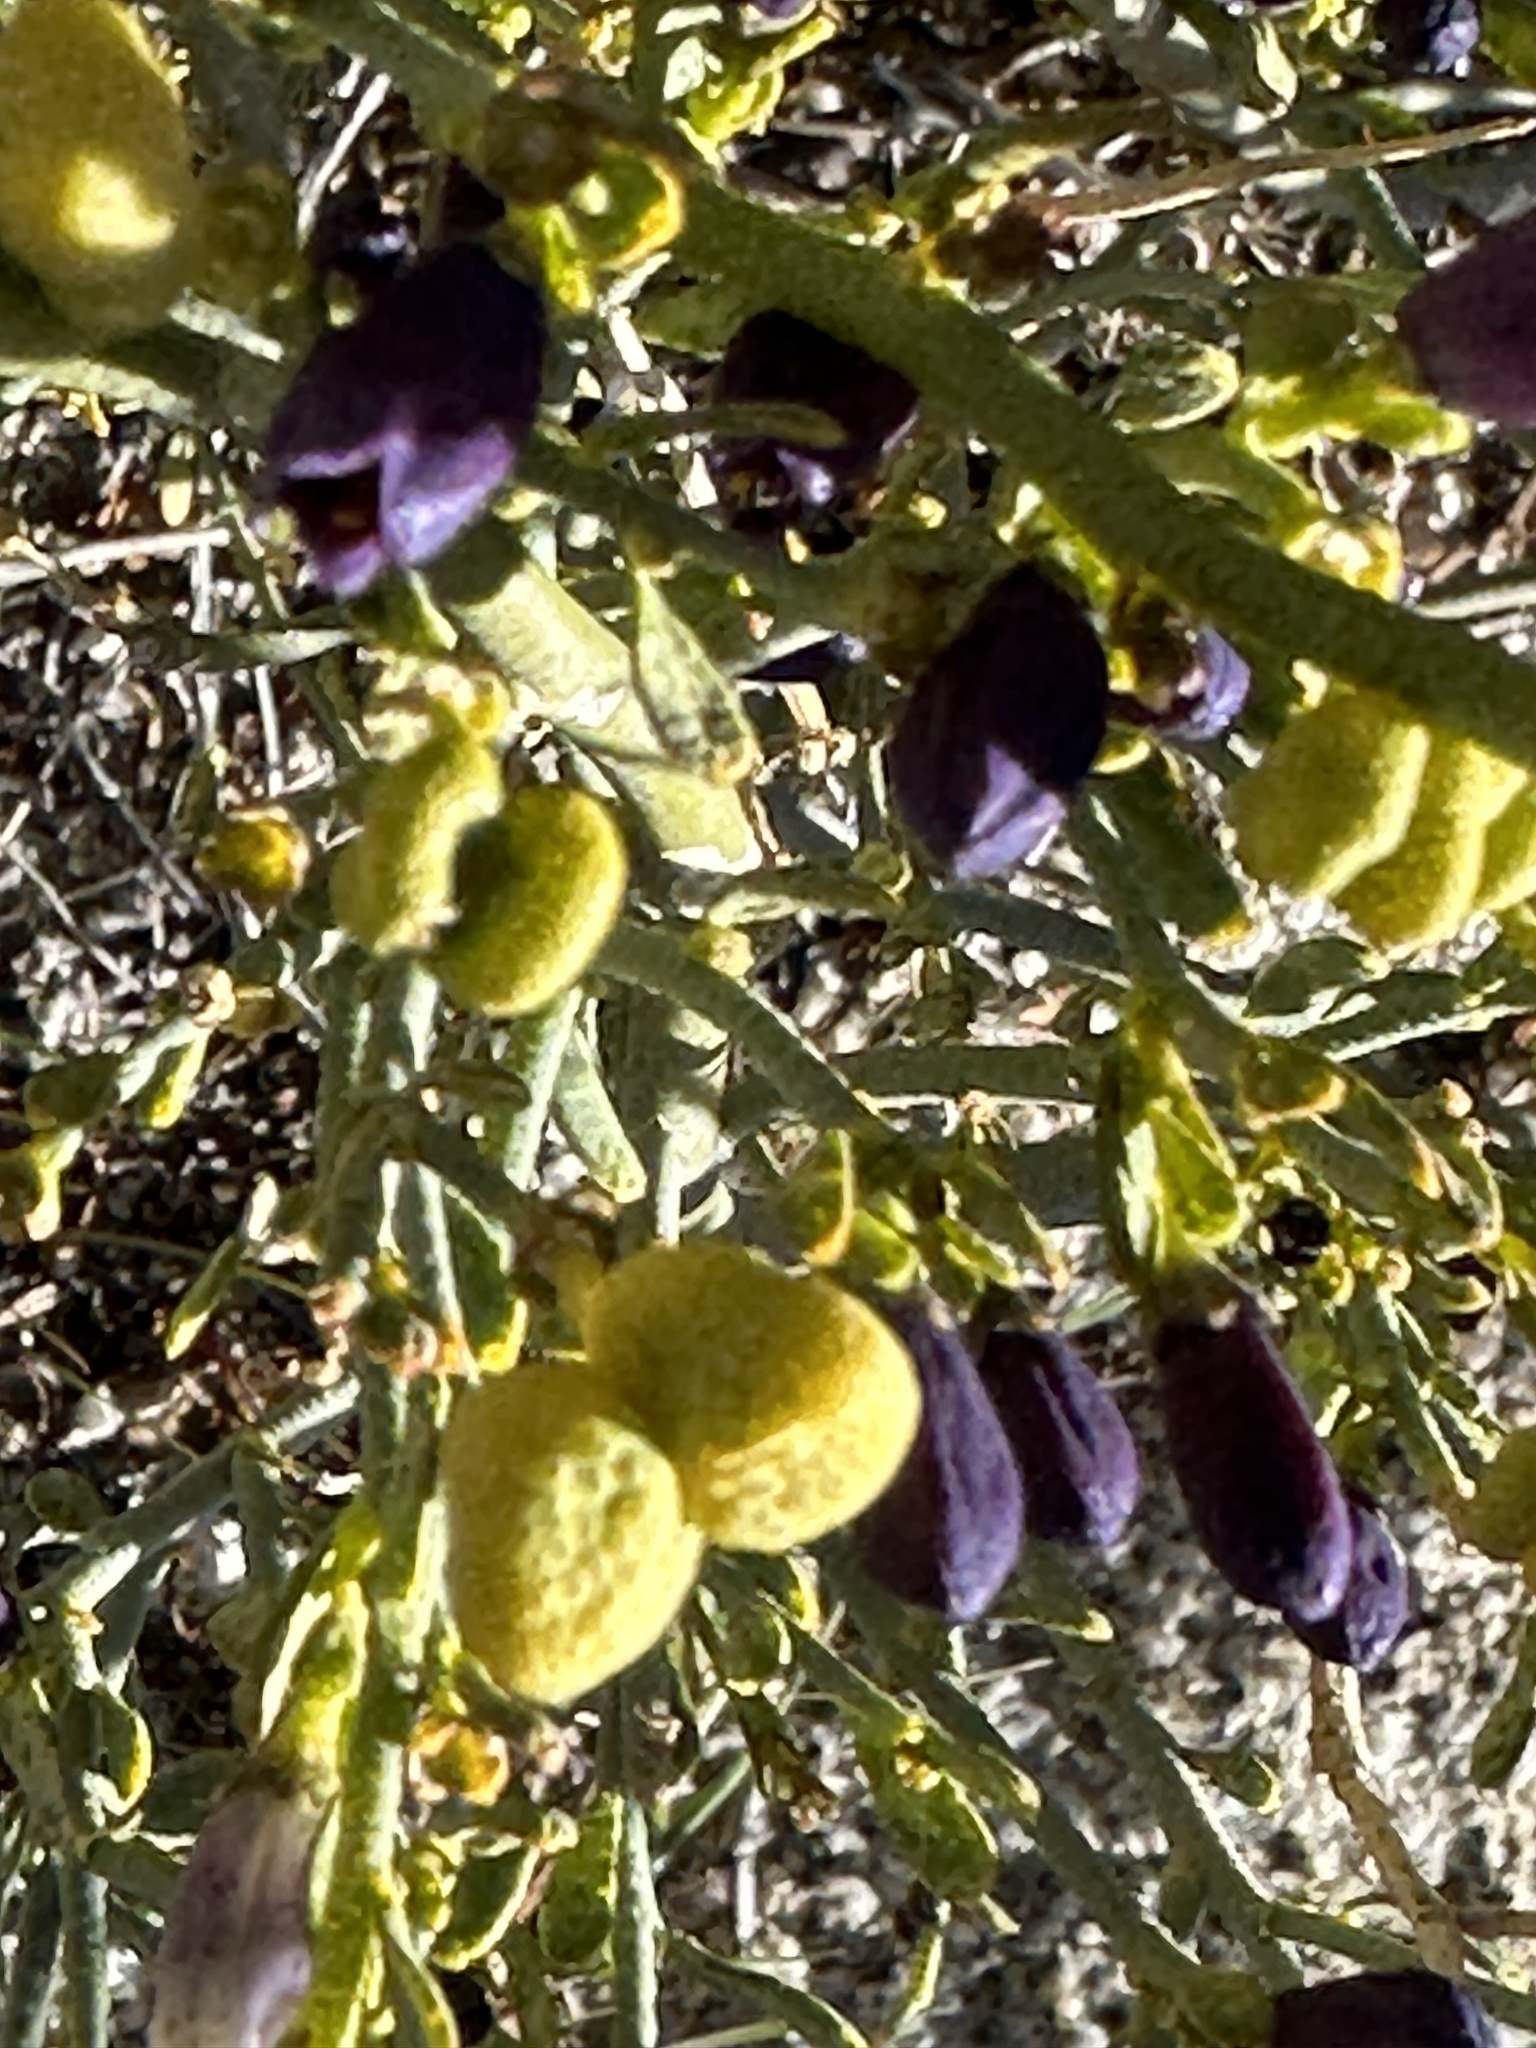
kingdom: Plantae
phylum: Tracheophyta
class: Magnoliopsida
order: Sapindales
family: Rutaceae
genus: Thamnosma
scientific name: Thamnosma montana
